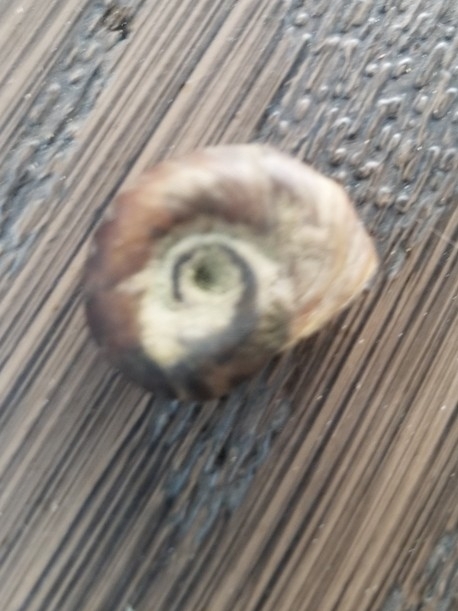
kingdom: Animalia
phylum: Mollusca
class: Gastropoda
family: Planorbidae
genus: Planorbella
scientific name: Planorbella duryi
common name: Seminole rams-horn
